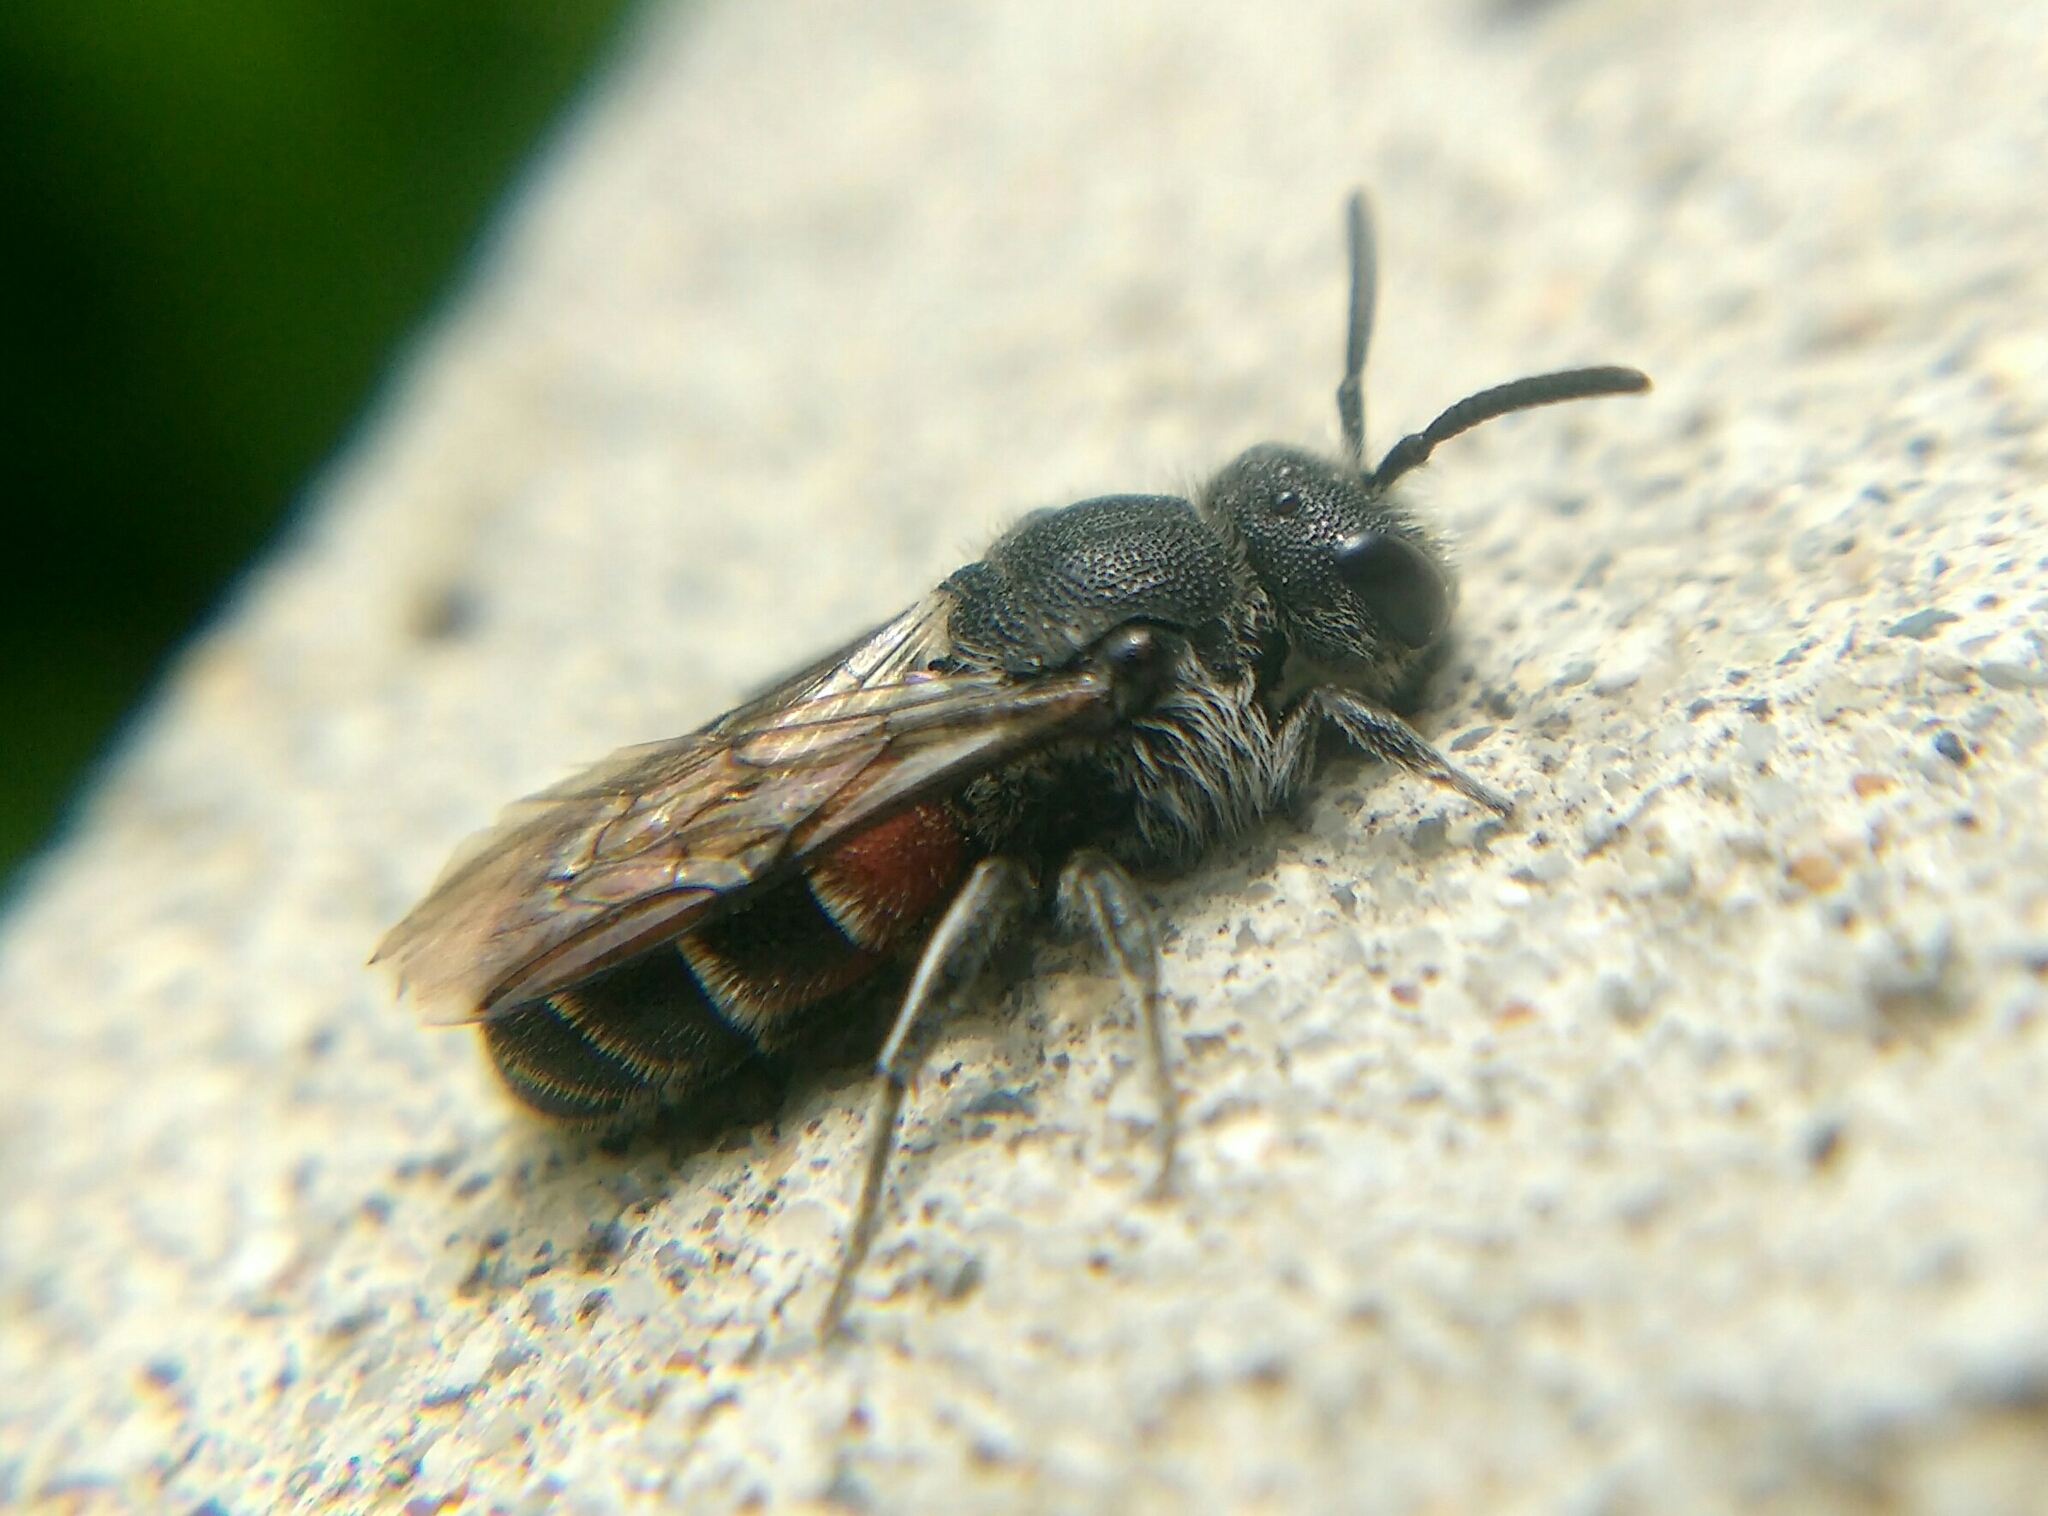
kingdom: Animalia
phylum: Arthropoda
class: Insecta
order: Hymenoptera
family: Megachilidae
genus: Dioxys
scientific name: Dioxys cinctus
